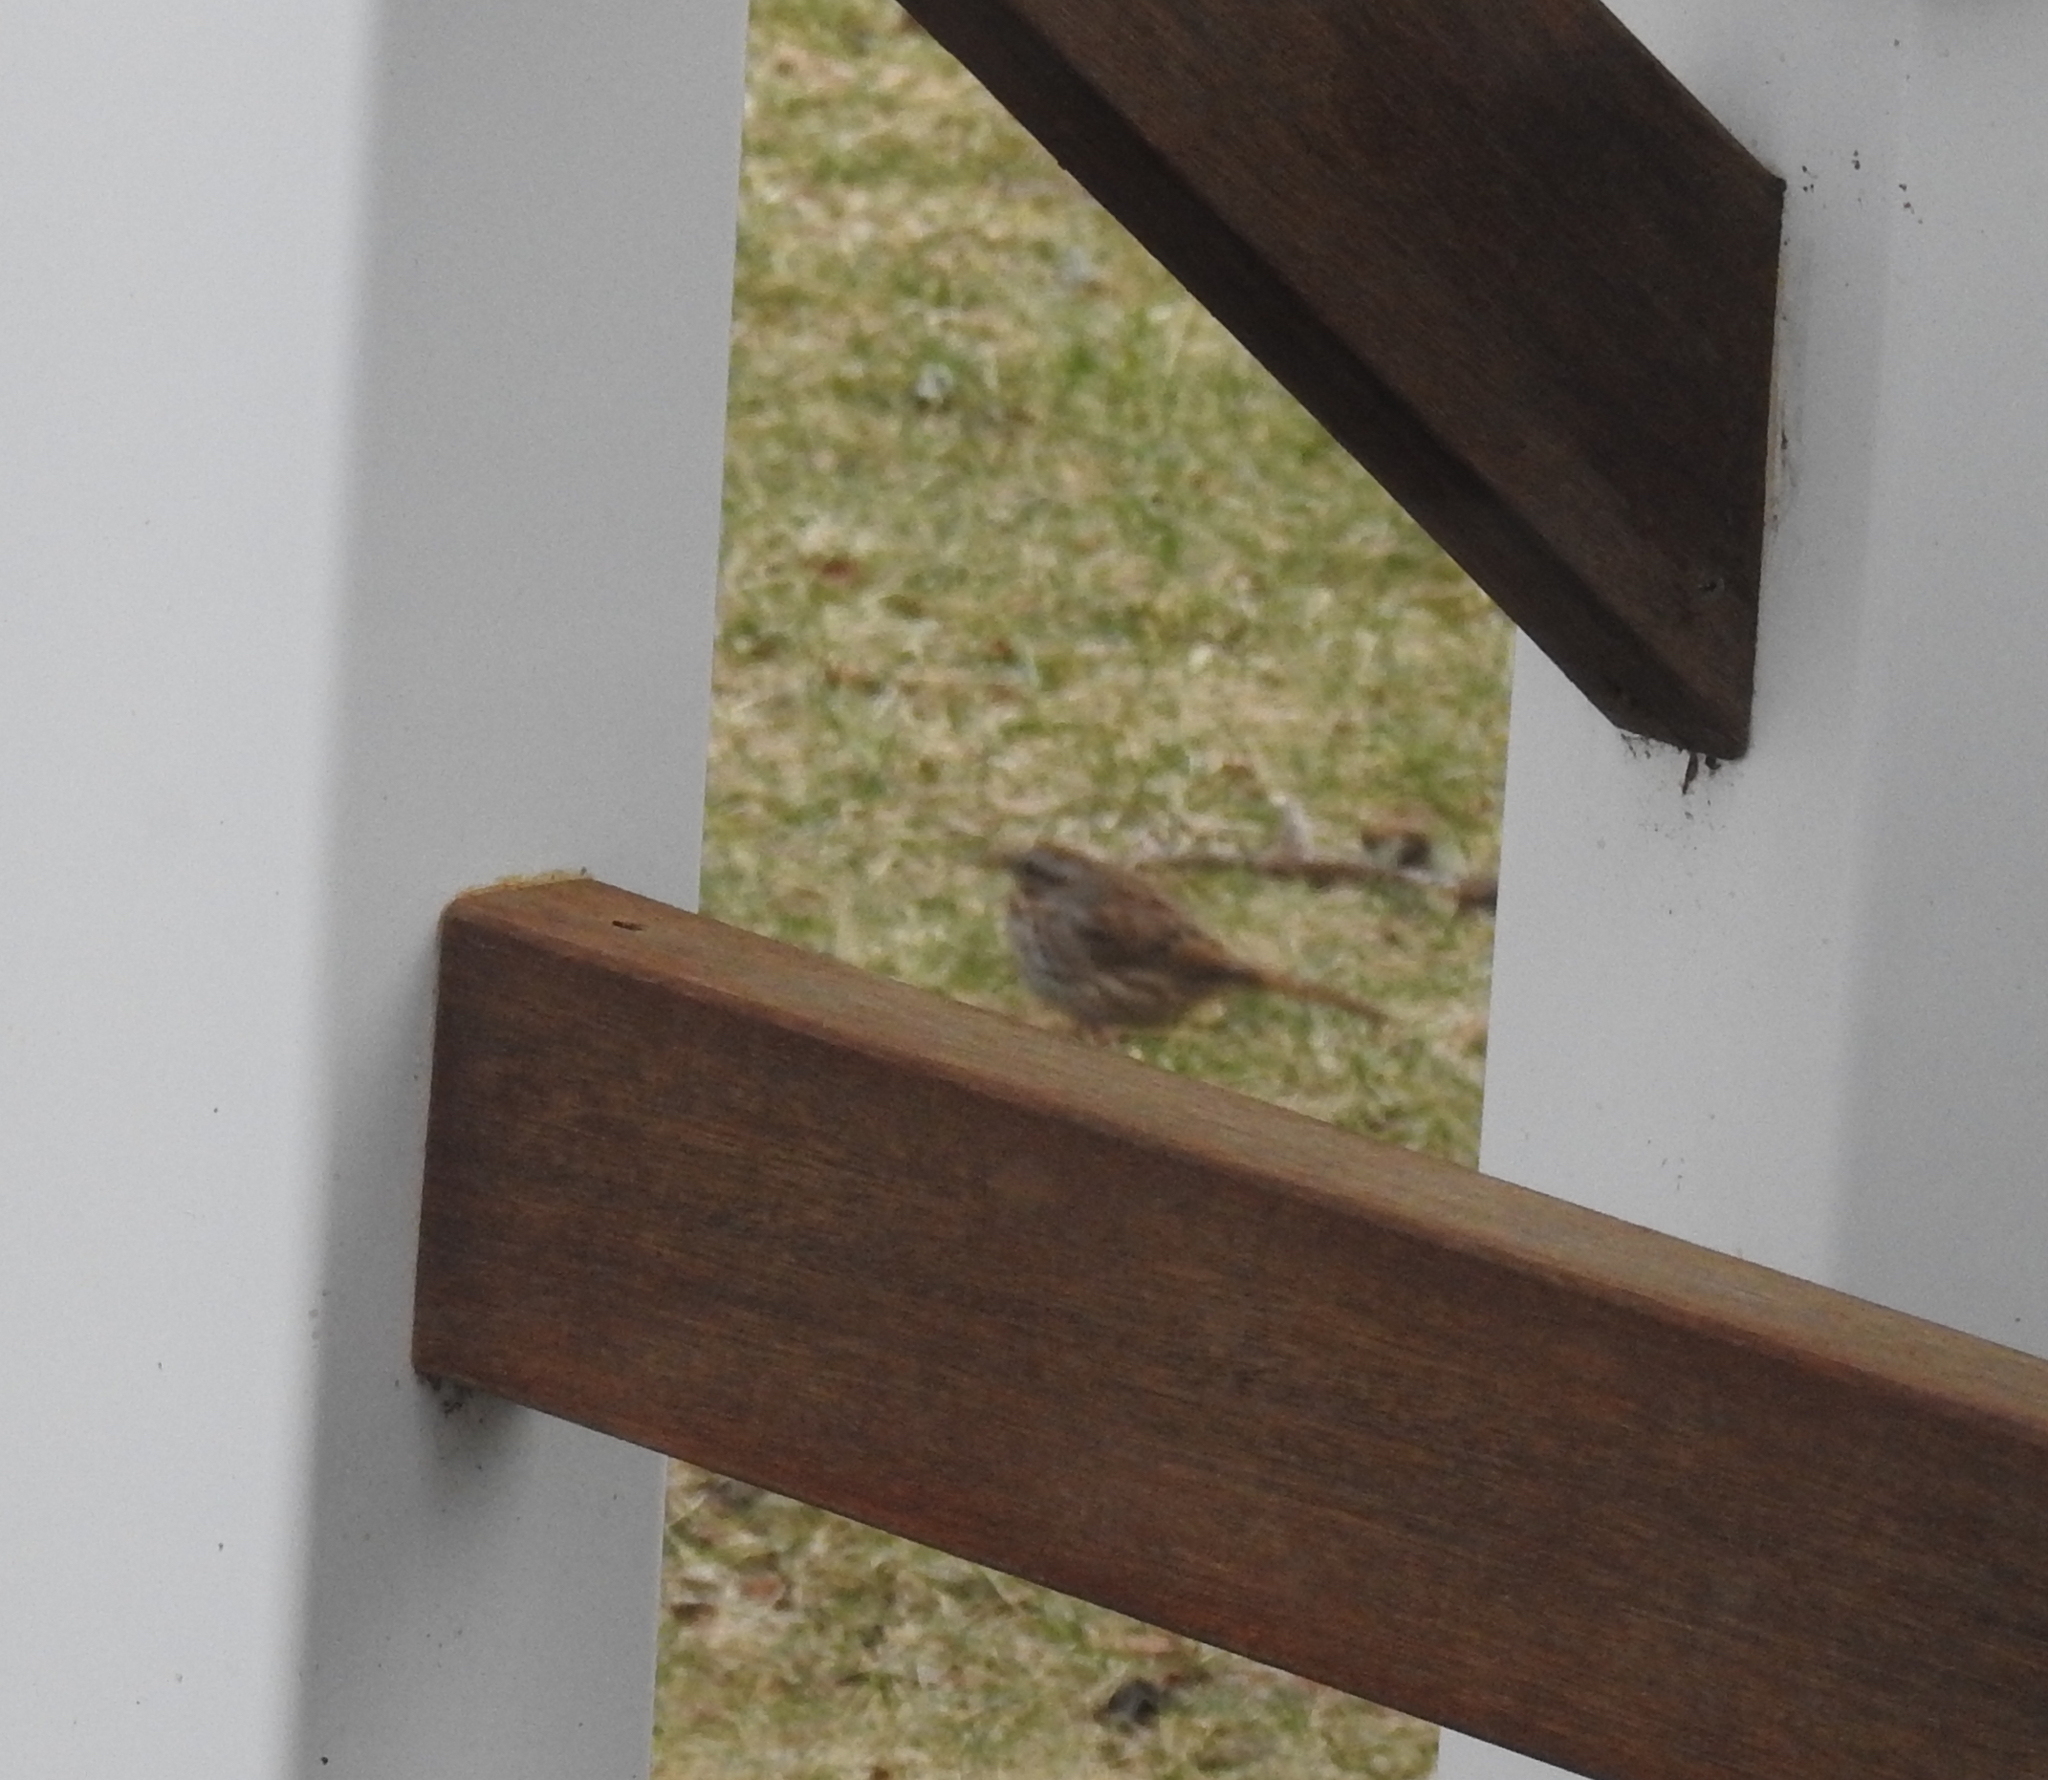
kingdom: Animalia
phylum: Chordata
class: Aves
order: Passeriformes
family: Passerellidae
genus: Melospiza
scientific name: Melospiza melodia
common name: Song sparrow
